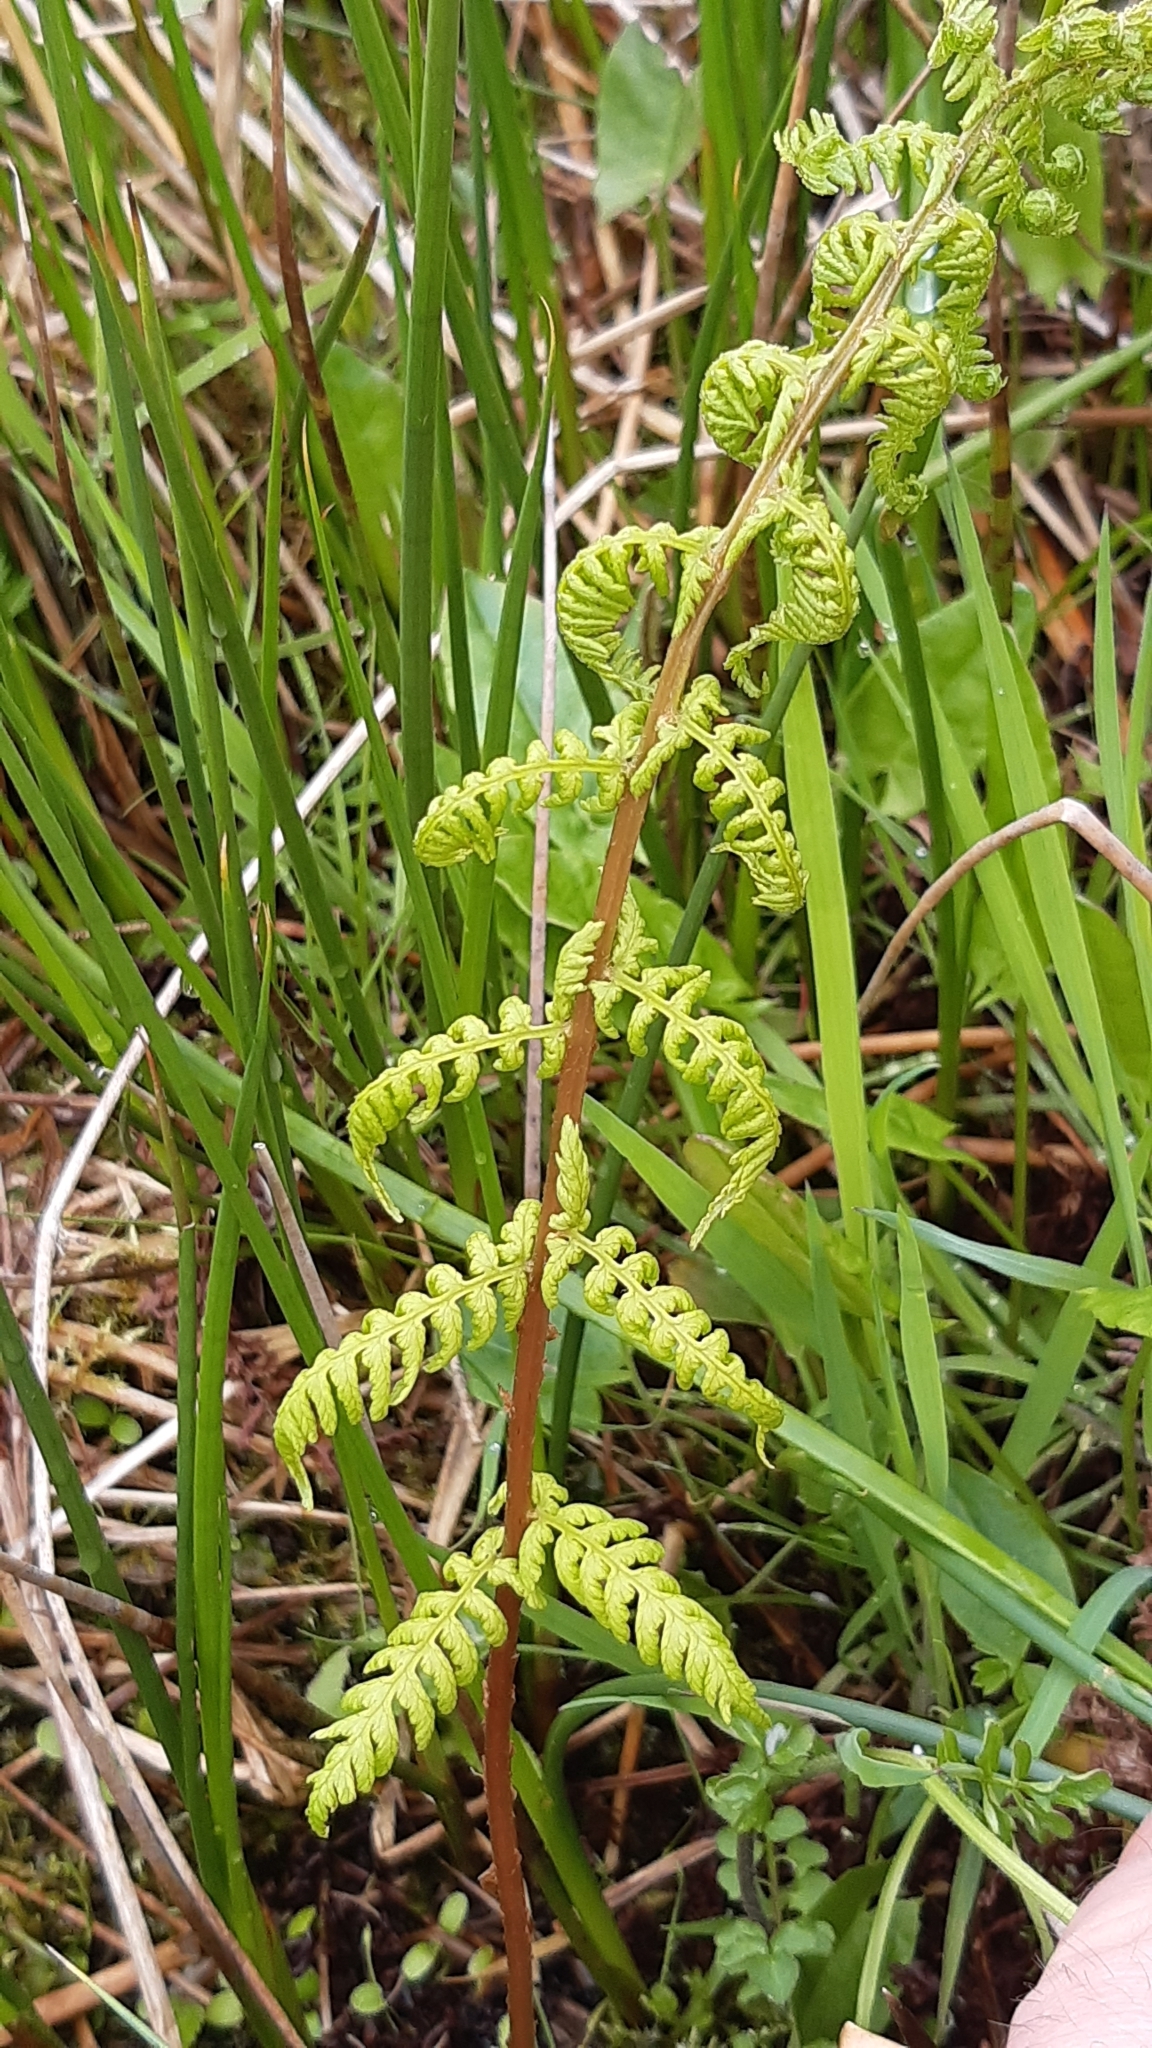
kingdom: Plantae
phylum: Tracheophyta
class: Polypodiopsida
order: Polypodiales
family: Athyriaceae
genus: Athyrium
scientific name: Athyrium filix-femina
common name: Lady fern
